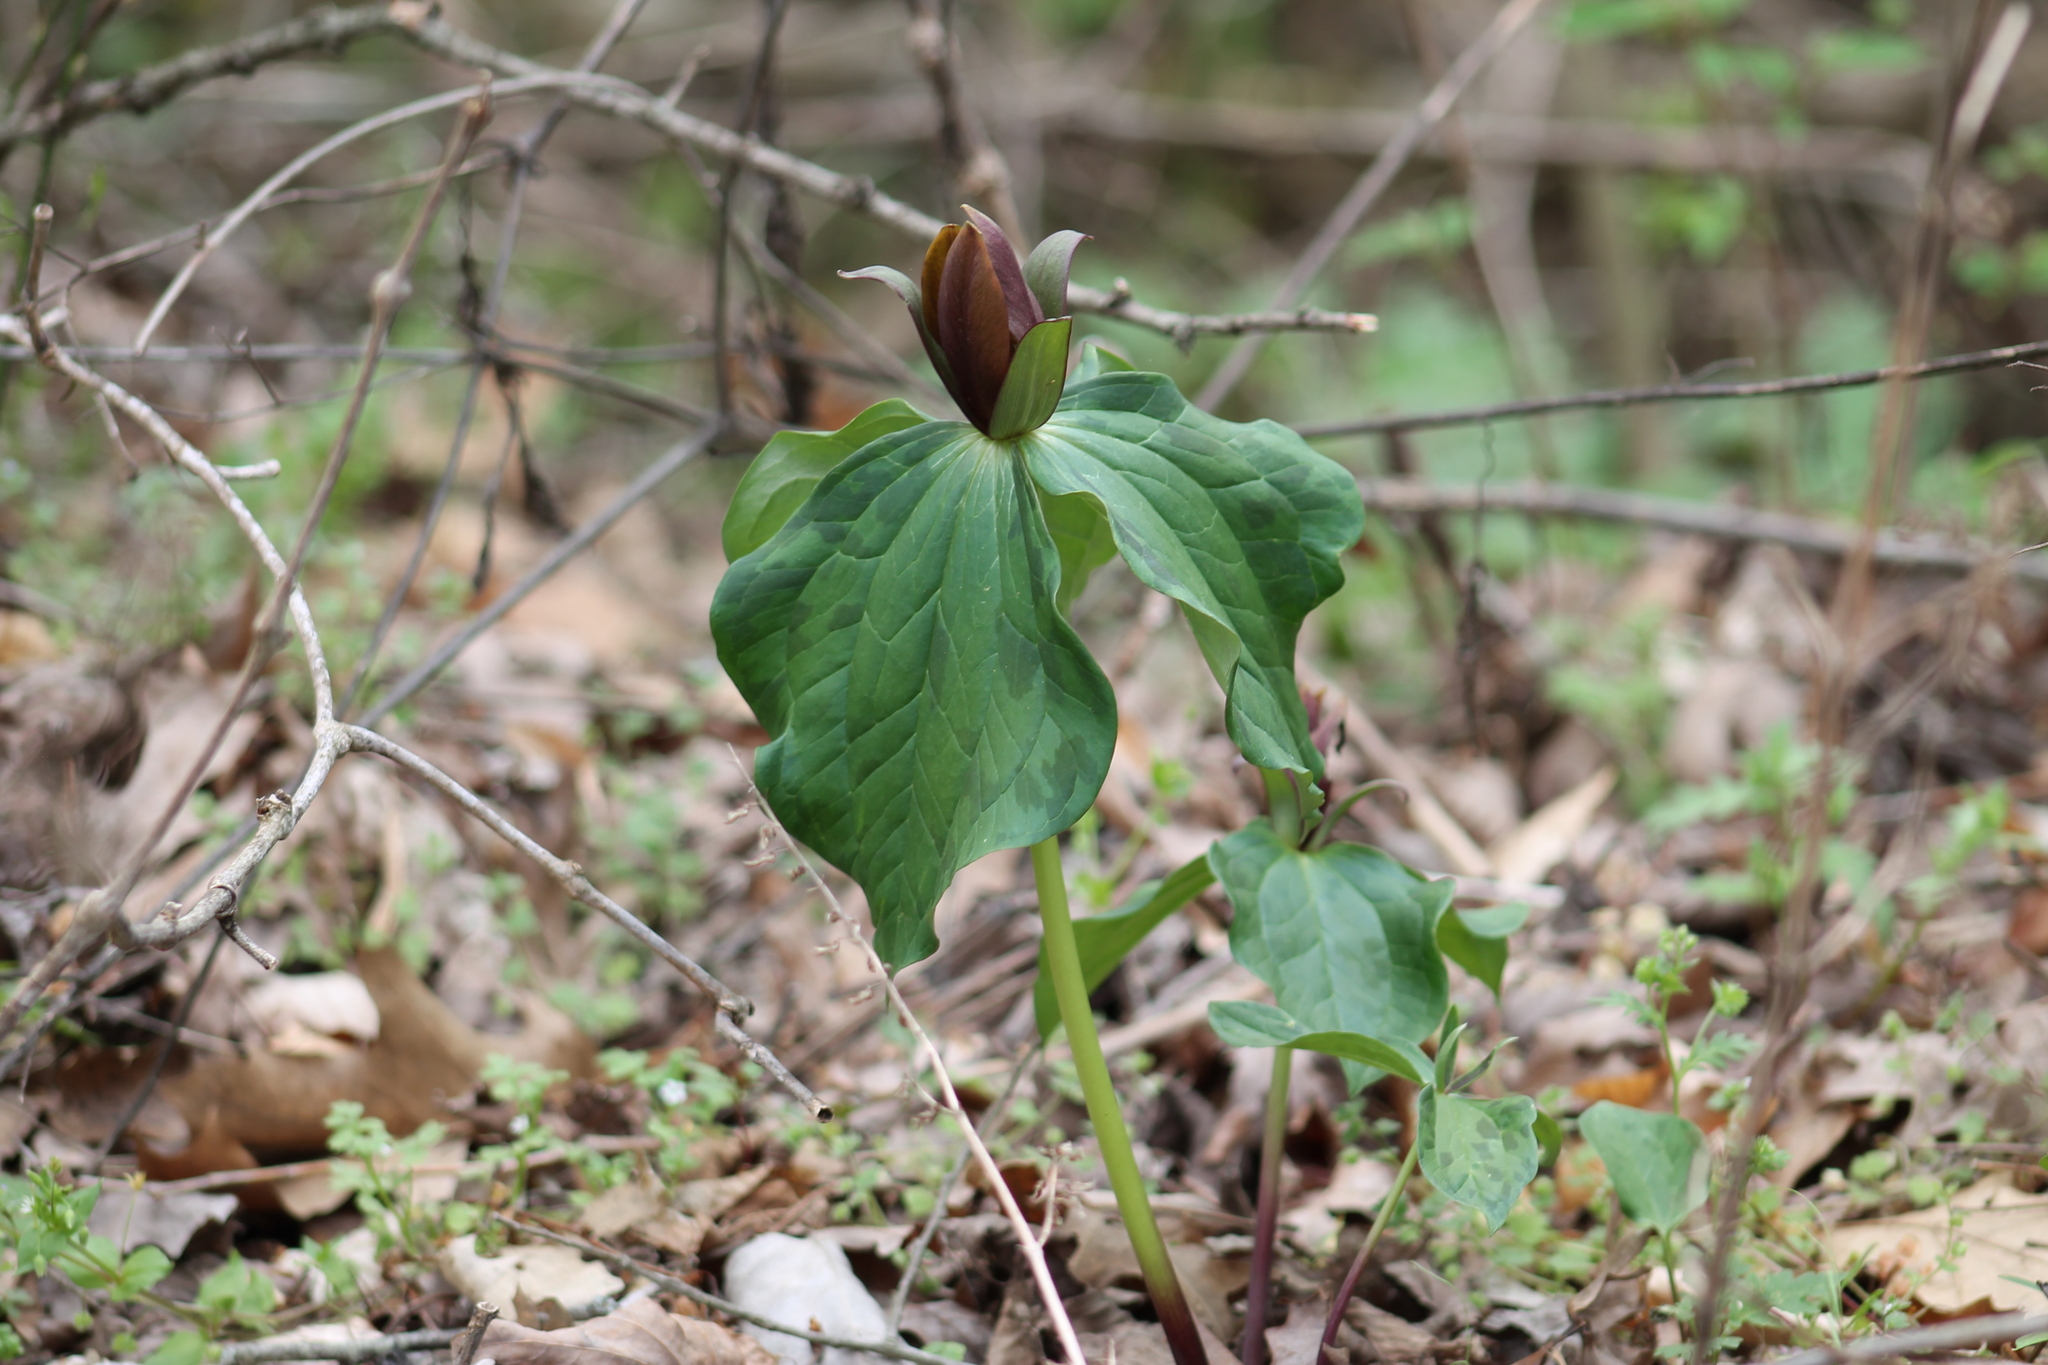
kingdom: Plantae
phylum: Tracheophyta
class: Liliopsida
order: Liliales
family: Melanthiaceae
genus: Trillium
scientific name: Trillium cuneatum
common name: Cuneate trillium
